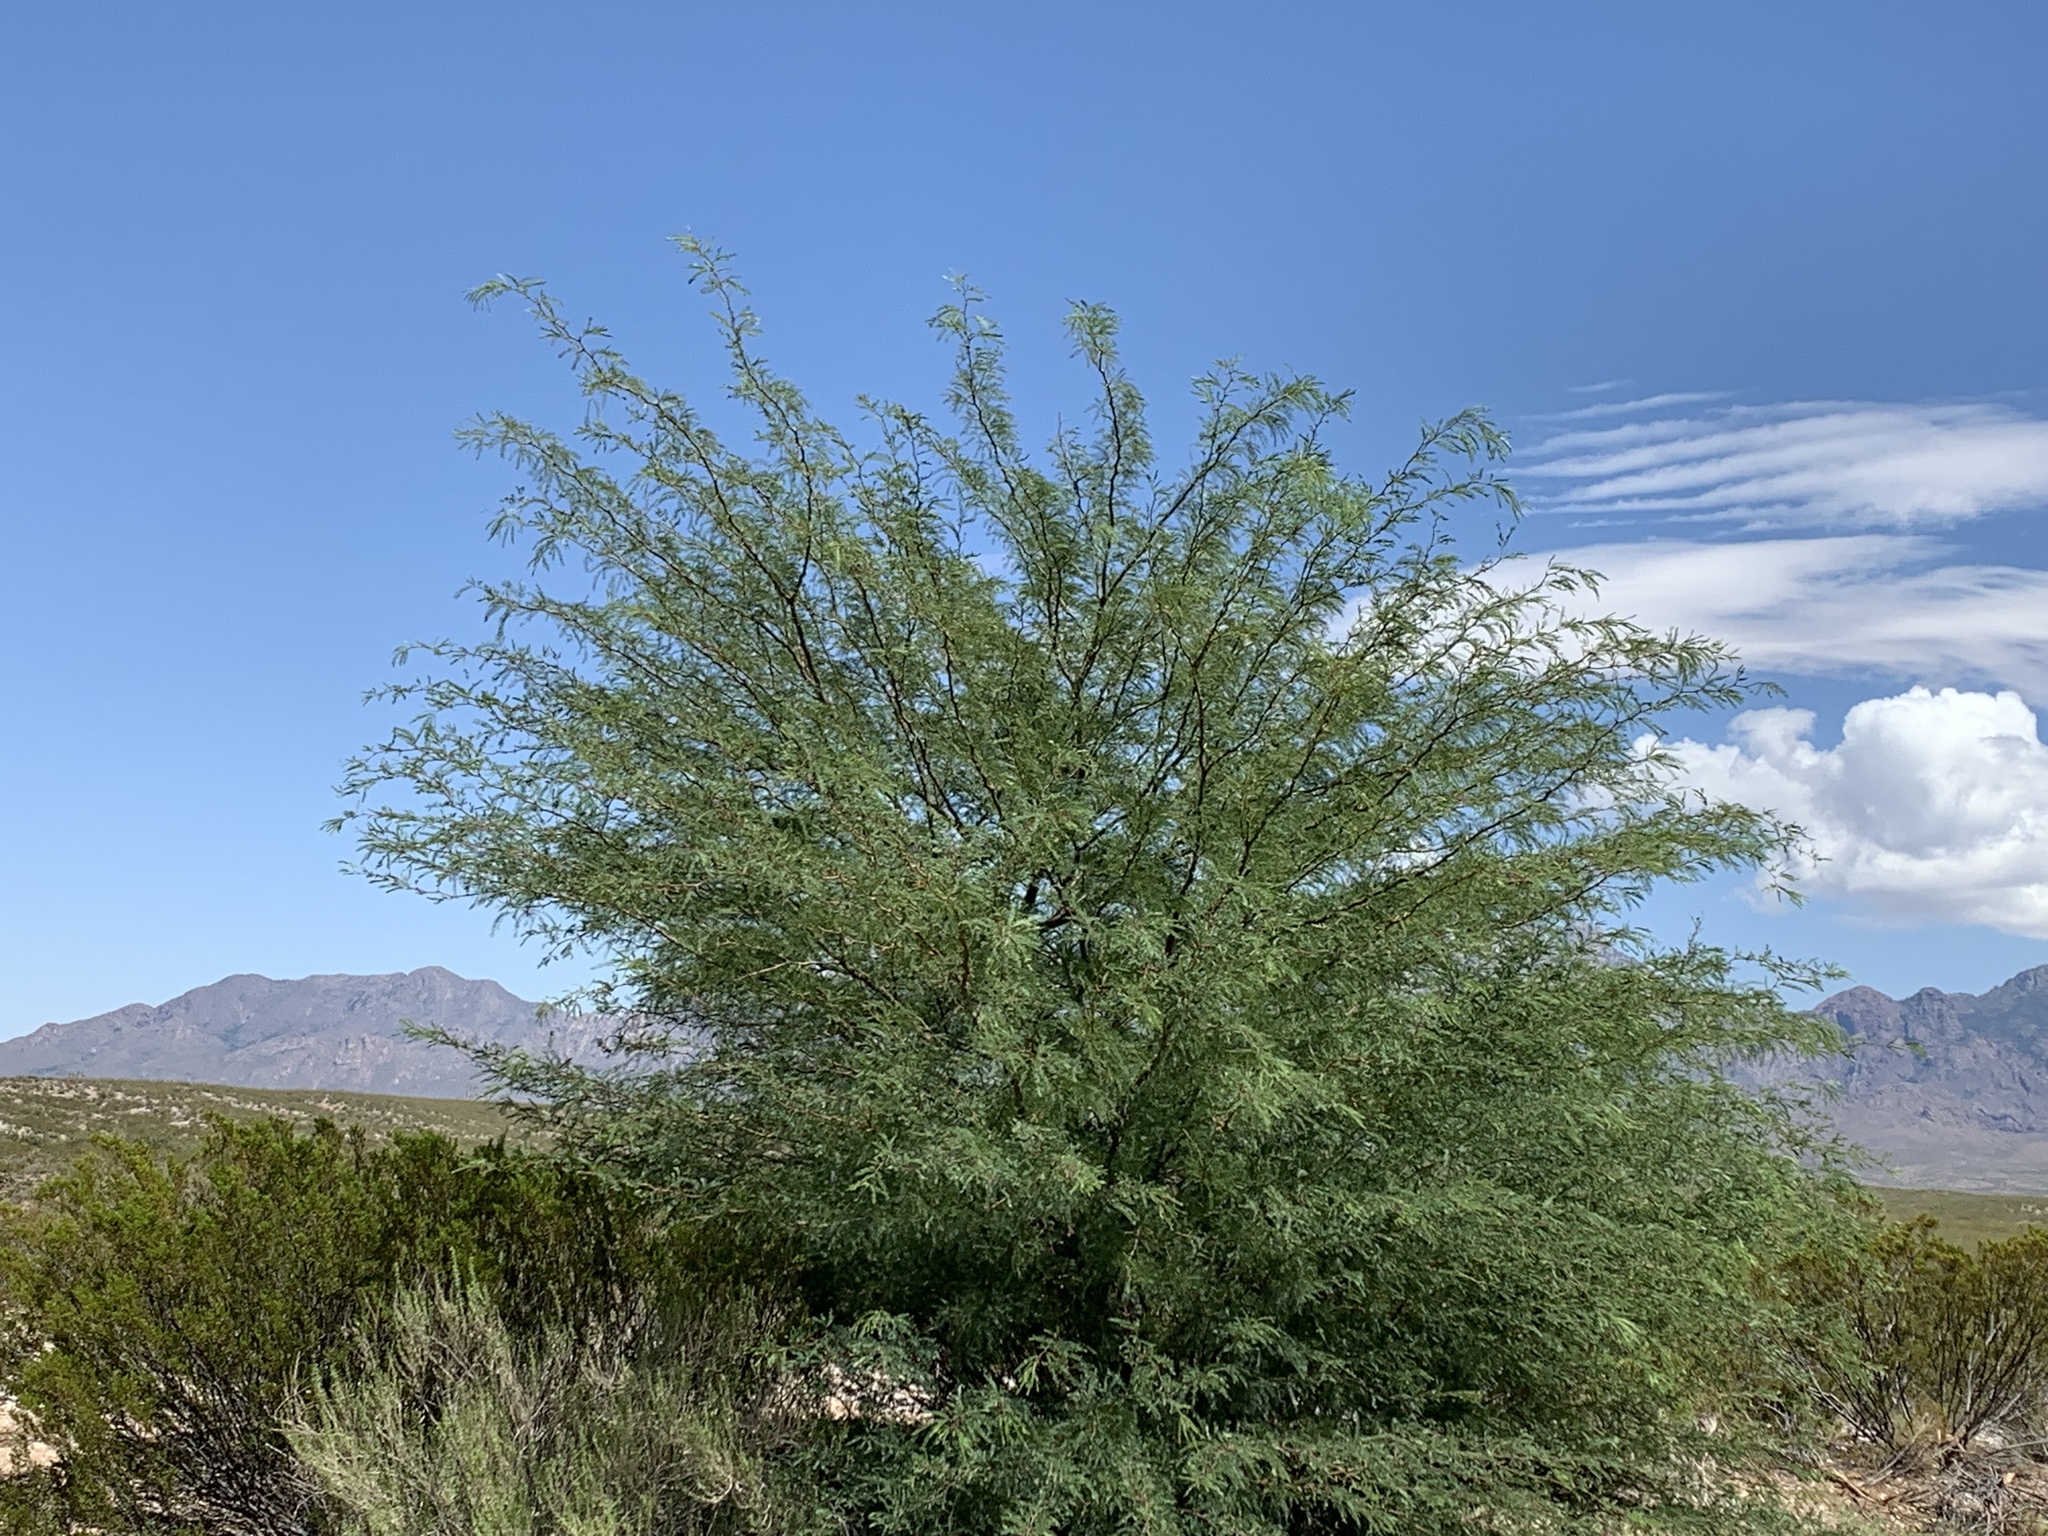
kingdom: Plantae
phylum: Tracheophyta
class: Magnoliopsida
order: Fabales
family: Fabaceae
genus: Prosopis
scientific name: Prosopis glandulosa
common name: Honey mesquite
